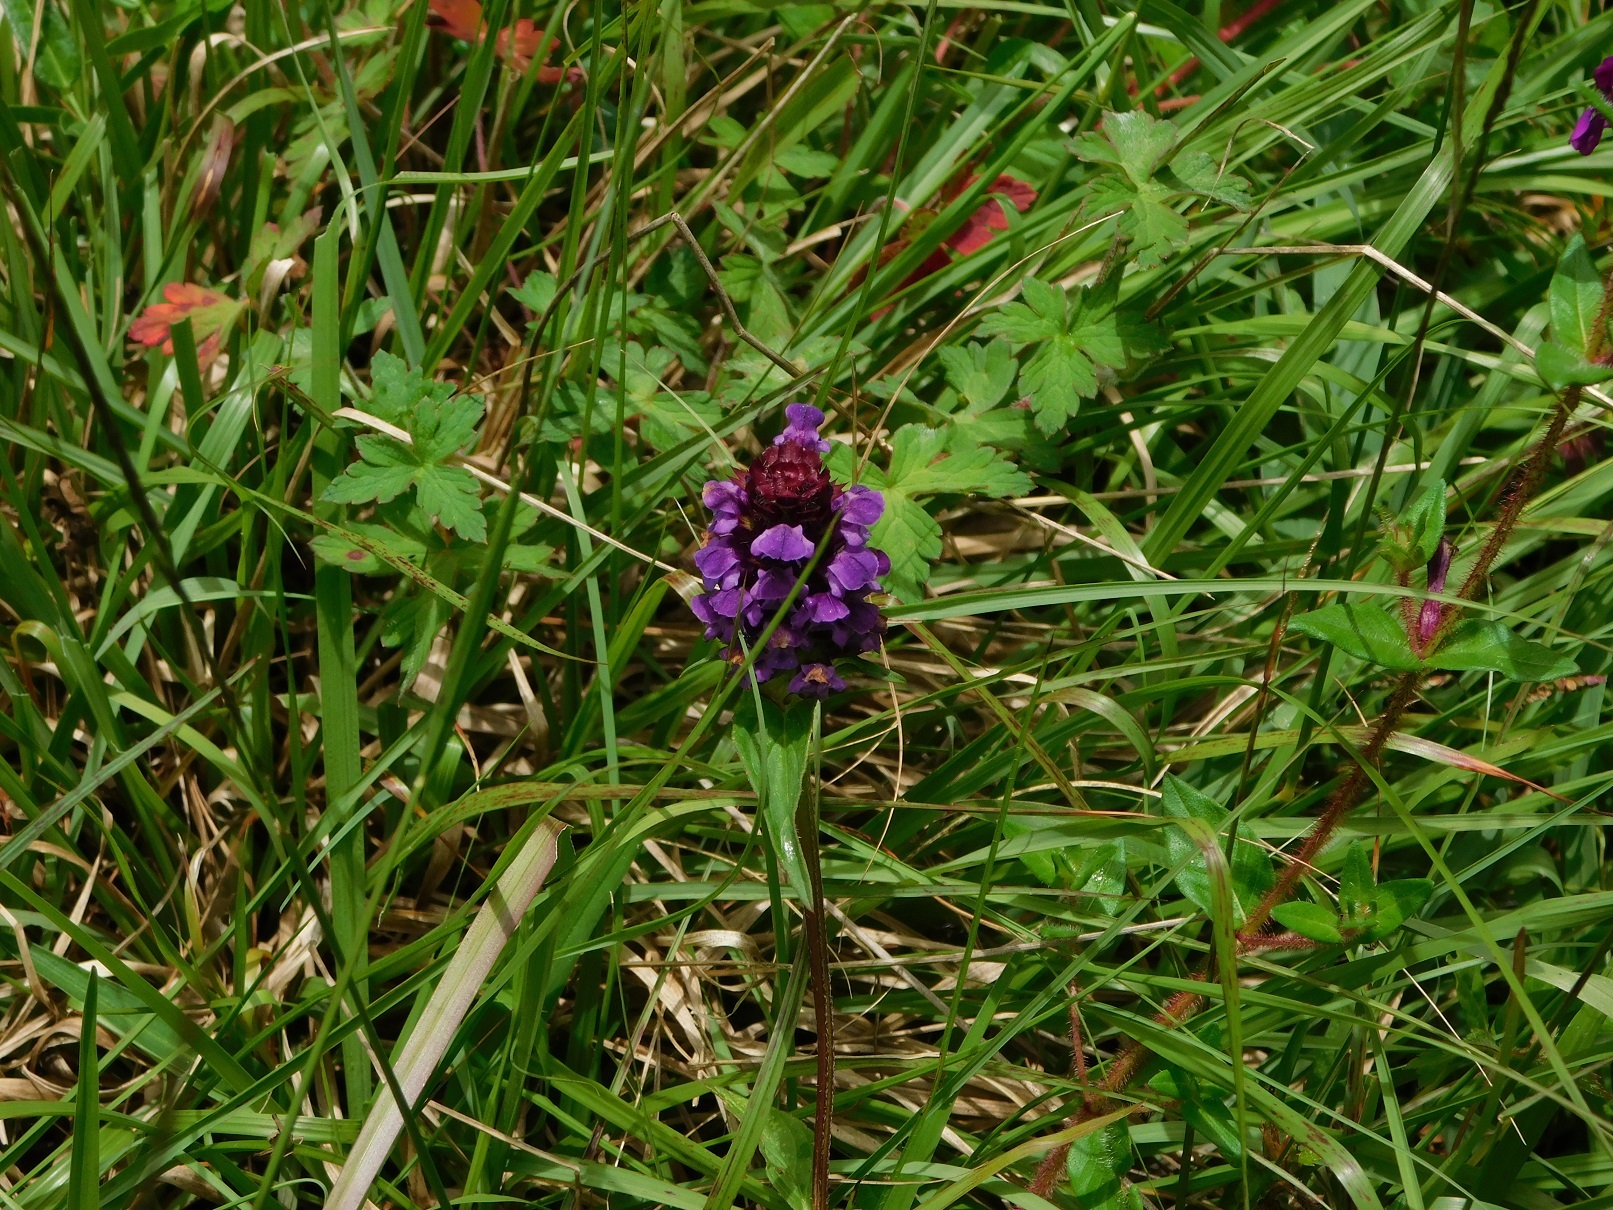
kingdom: Plantae
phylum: Tracheophyta
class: Magnoliopsida
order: Lamiales
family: Lamiaceae
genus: Prunella
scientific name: Prunella vulgaris
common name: Heal-all
